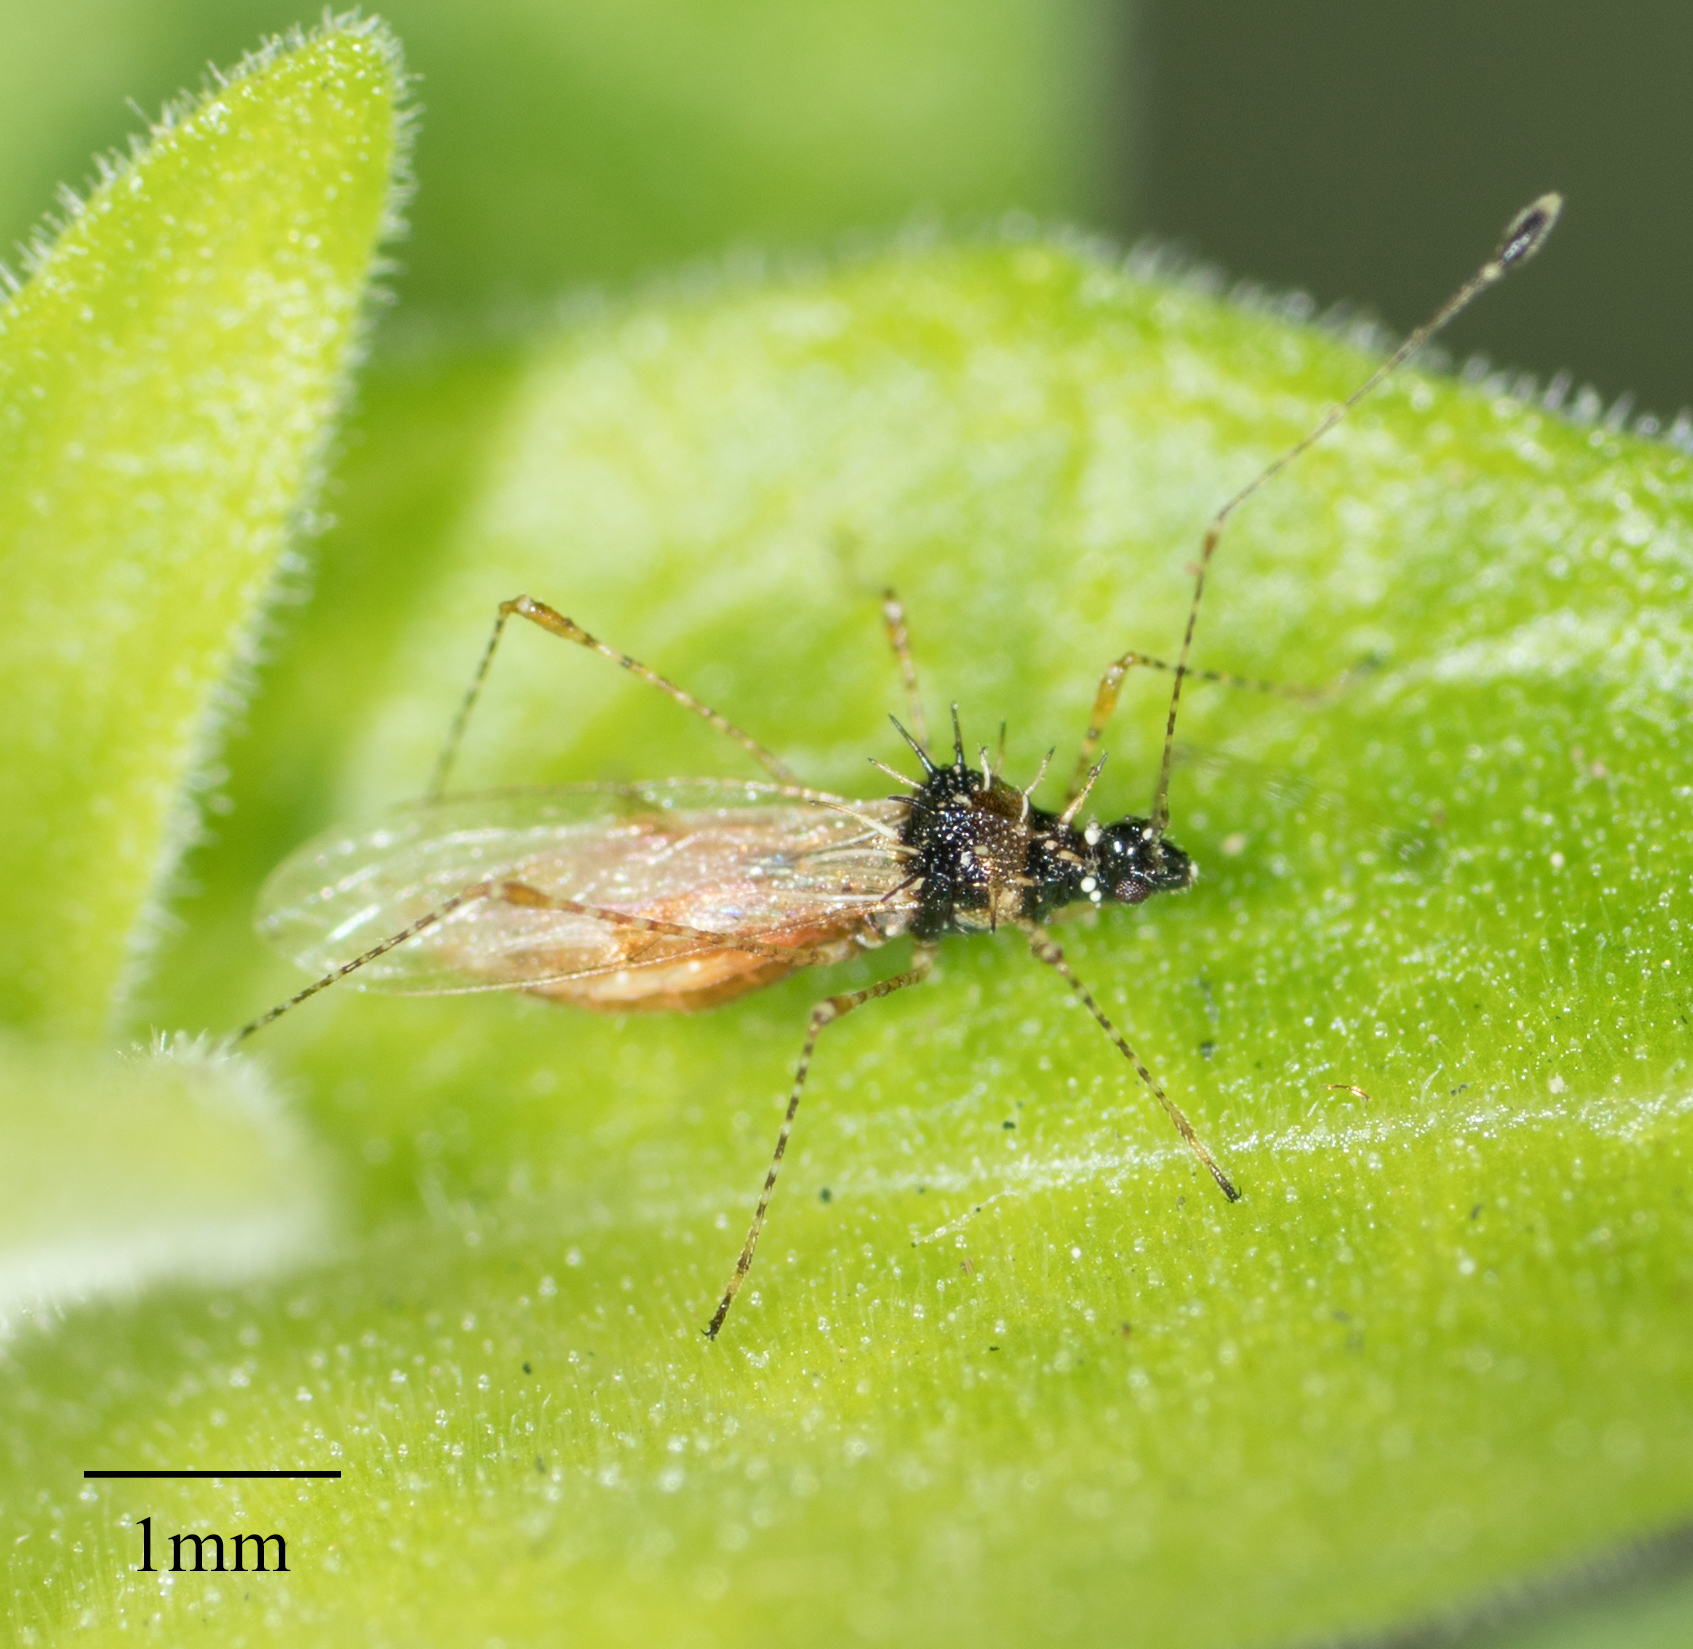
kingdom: Animalia
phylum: Arthropoda
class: Insecta
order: Hemiptera
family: Berytidae
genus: Pronotacantha
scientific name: Pronotacantha annulata
